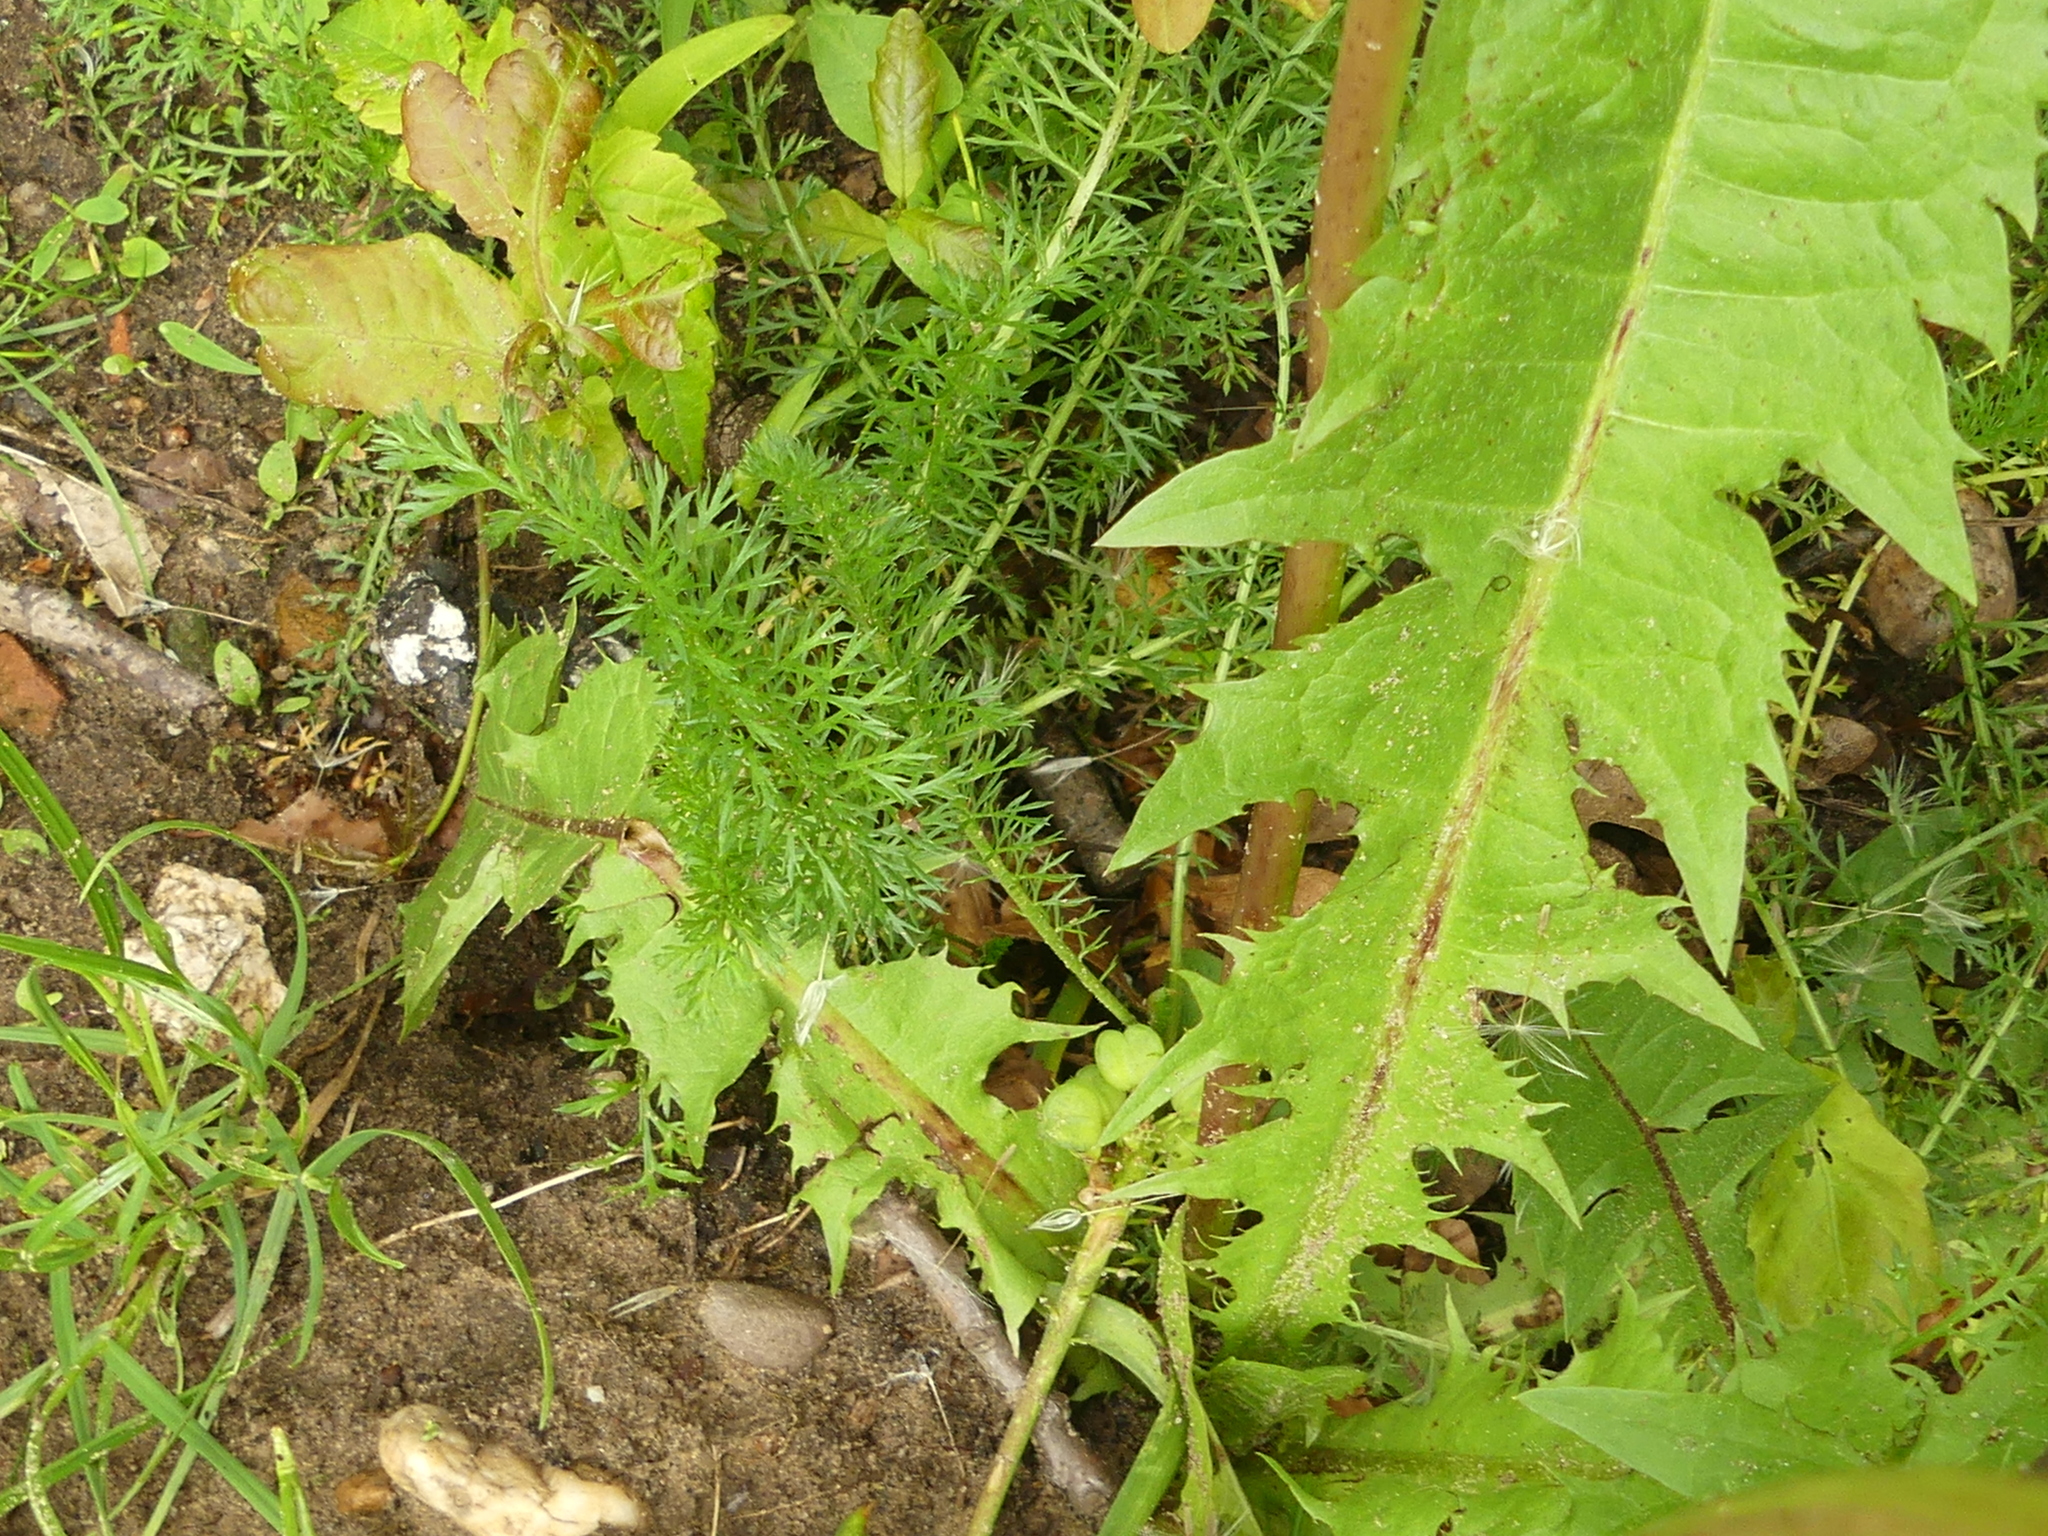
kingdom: Plantae
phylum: Tracheophyta
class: Magnoliopsida
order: Asterales
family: Asteraceae
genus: Achillea
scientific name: Achillea millefolium
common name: Yarrow
